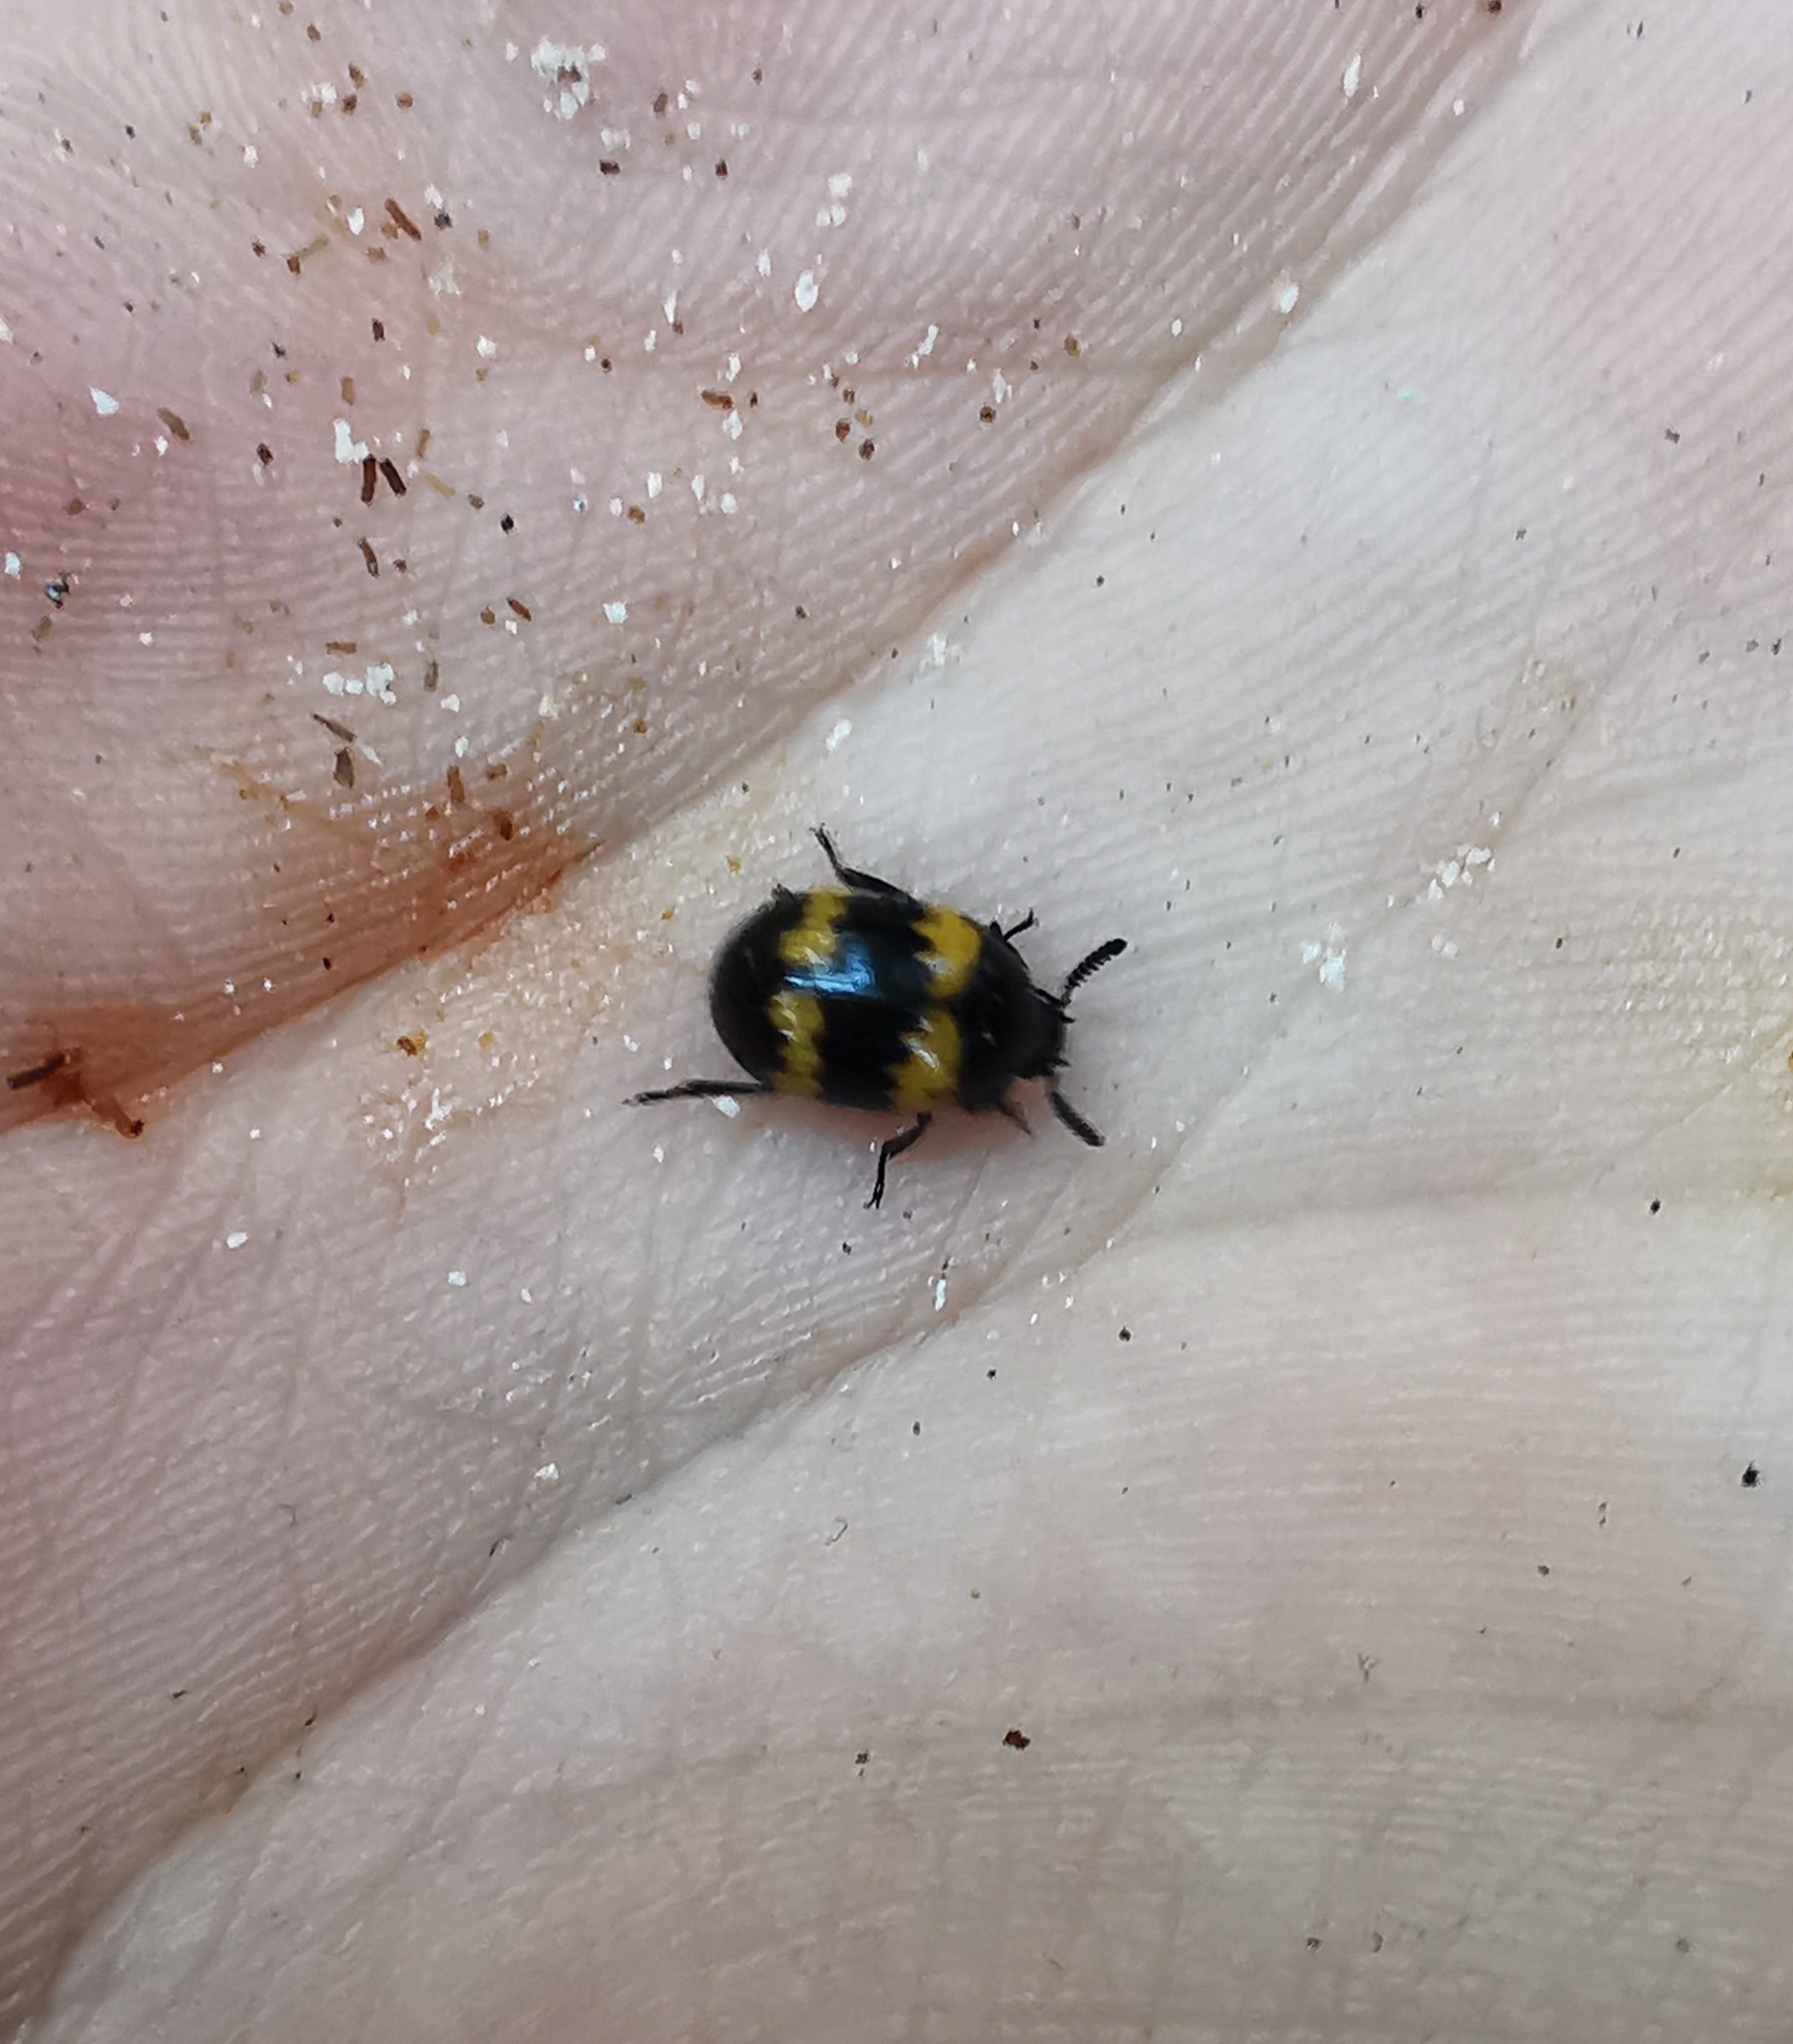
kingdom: Animalia
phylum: Arthropoda
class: Insecta
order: Coleoptera
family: Tenebrionidae
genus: Diaperis
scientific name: Diaperis boleti
